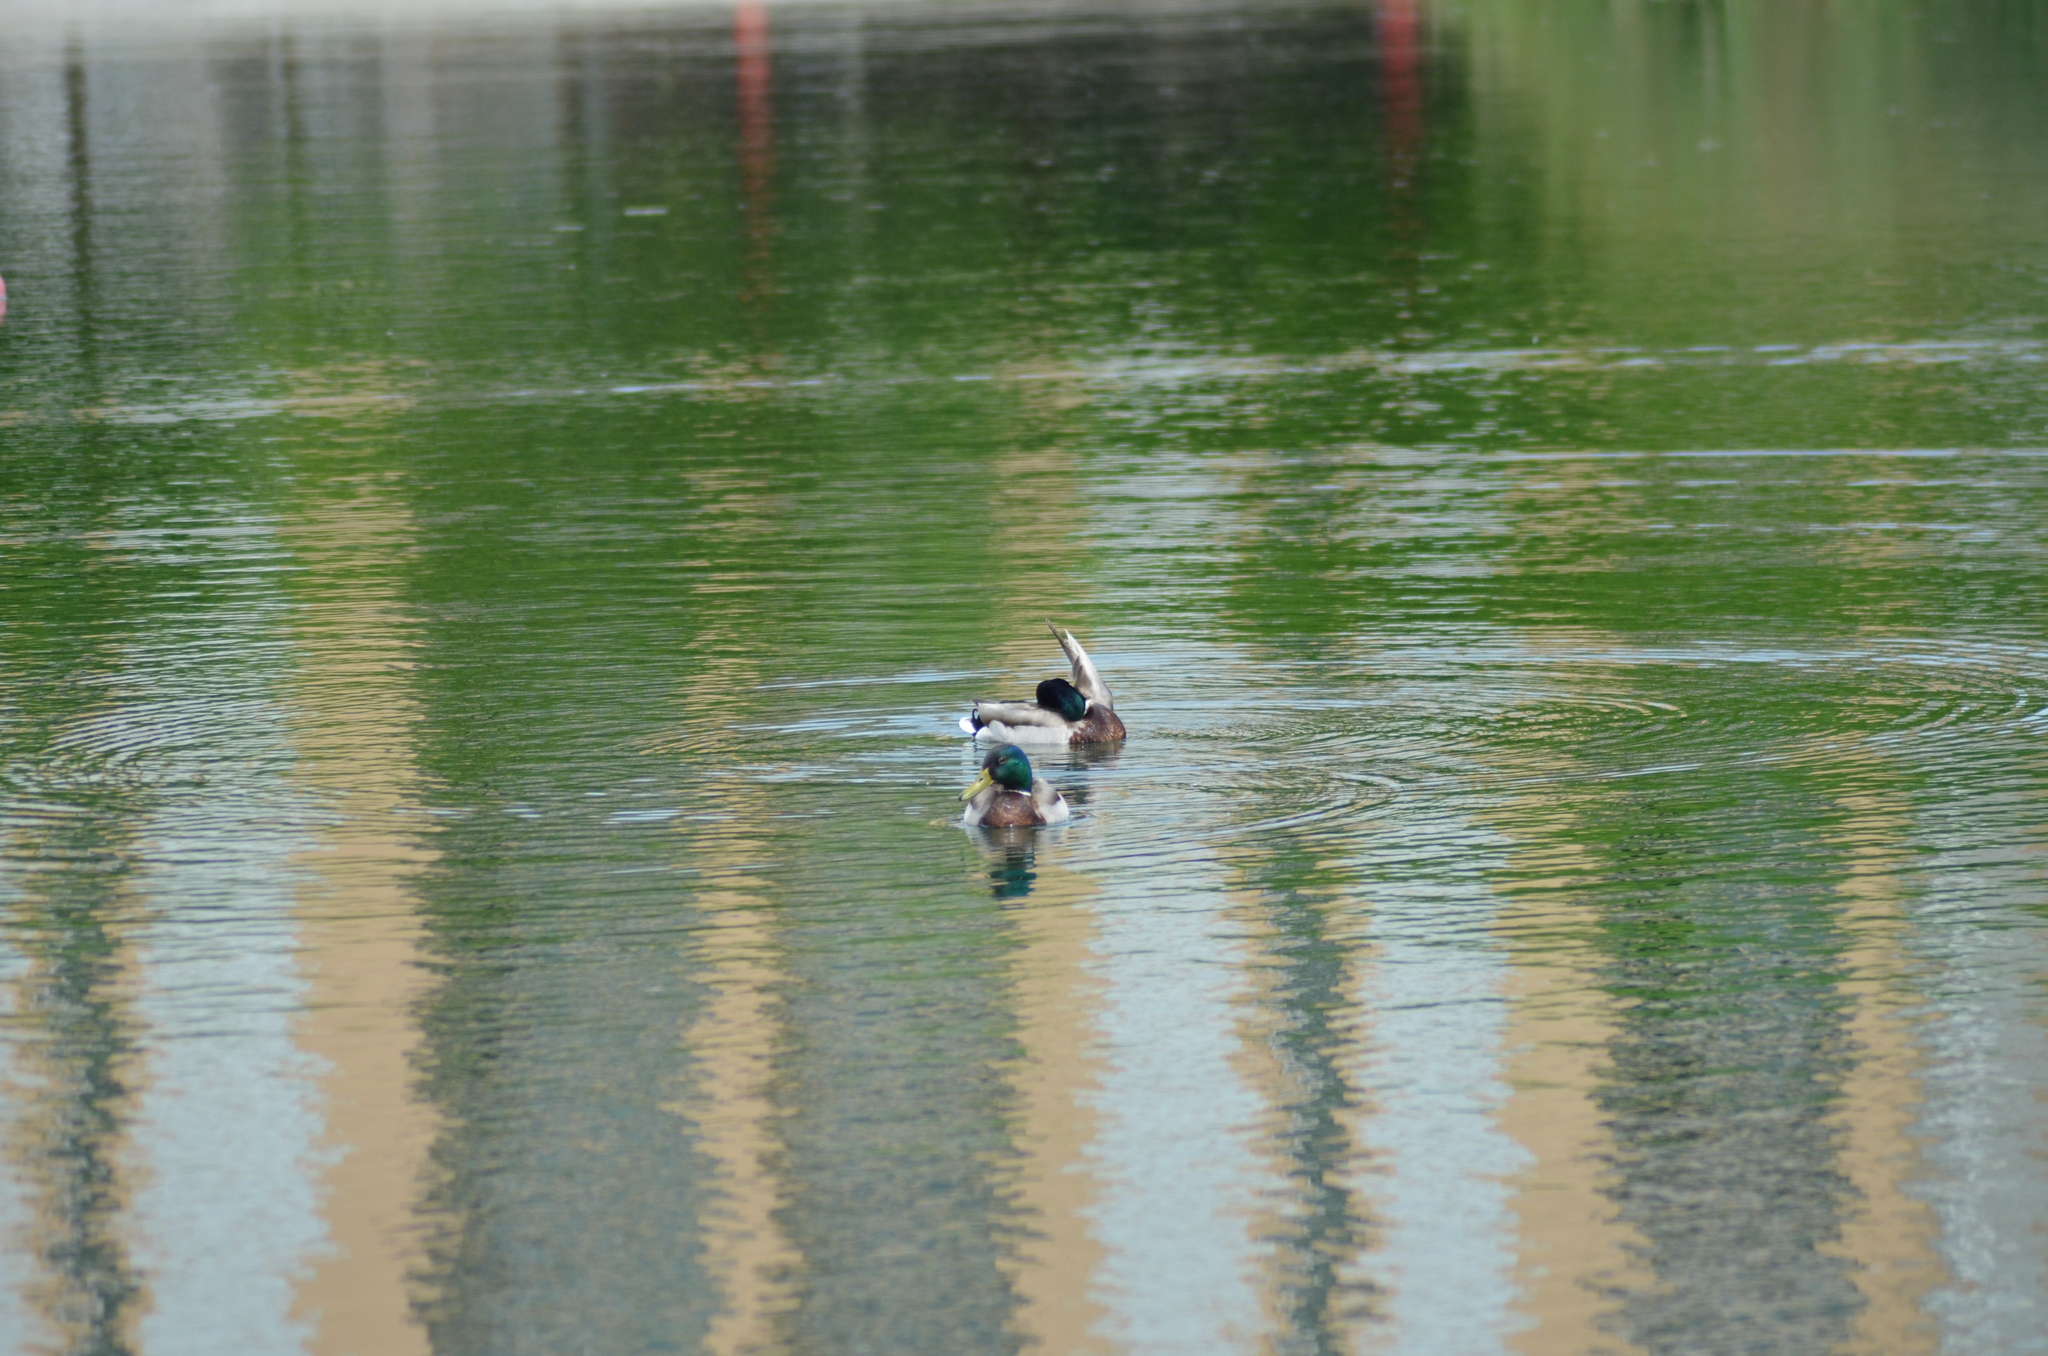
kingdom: Animalia
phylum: Chordata
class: Aves
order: Anseriformes
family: Anatidae
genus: Anas
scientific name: Anas platyrhynchos
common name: Mallard
